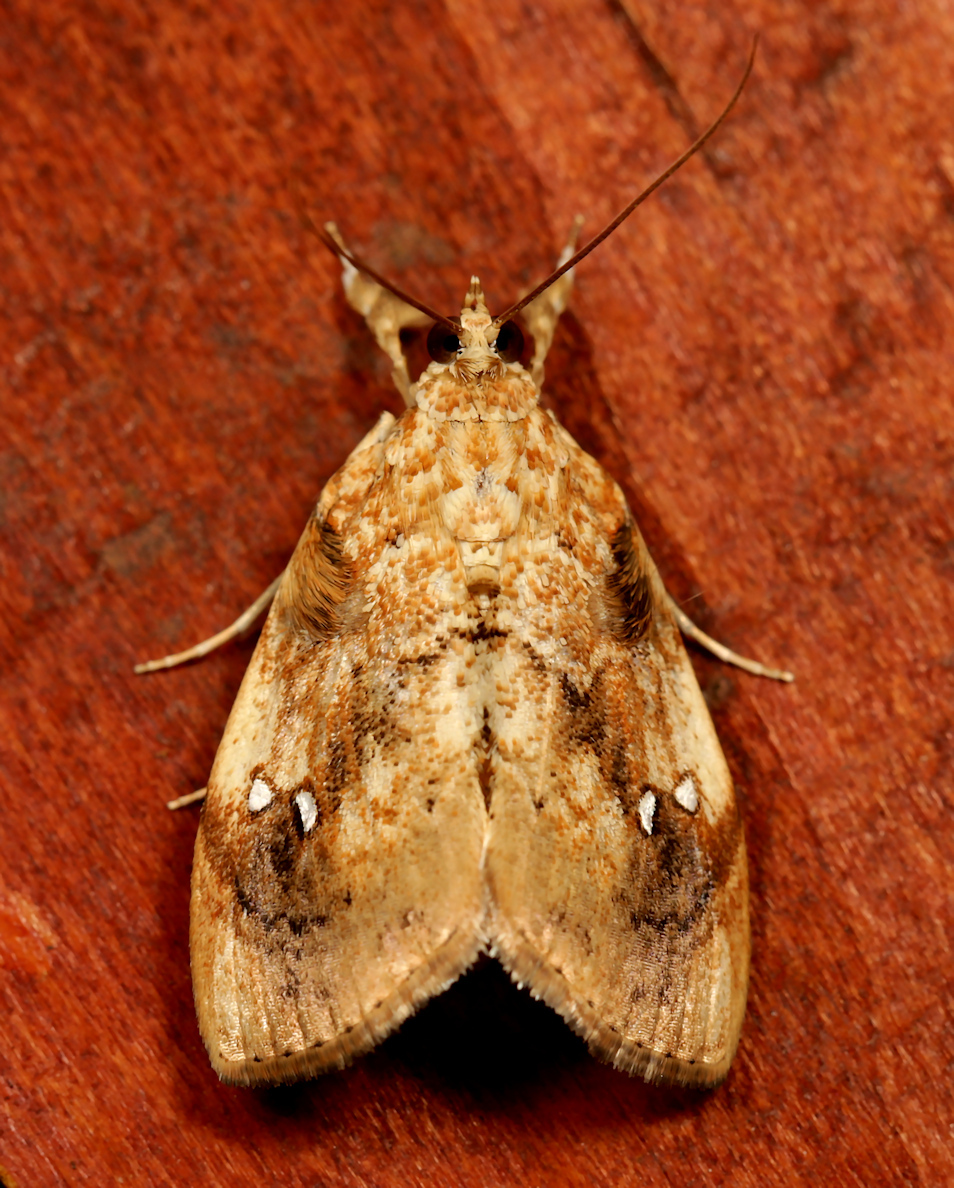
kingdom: Animalia
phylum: Arthropoda
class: Insecta
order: Lepidoptera
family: Crambidae
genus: Crocidolomia
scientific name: Crocidolomia pavonana
